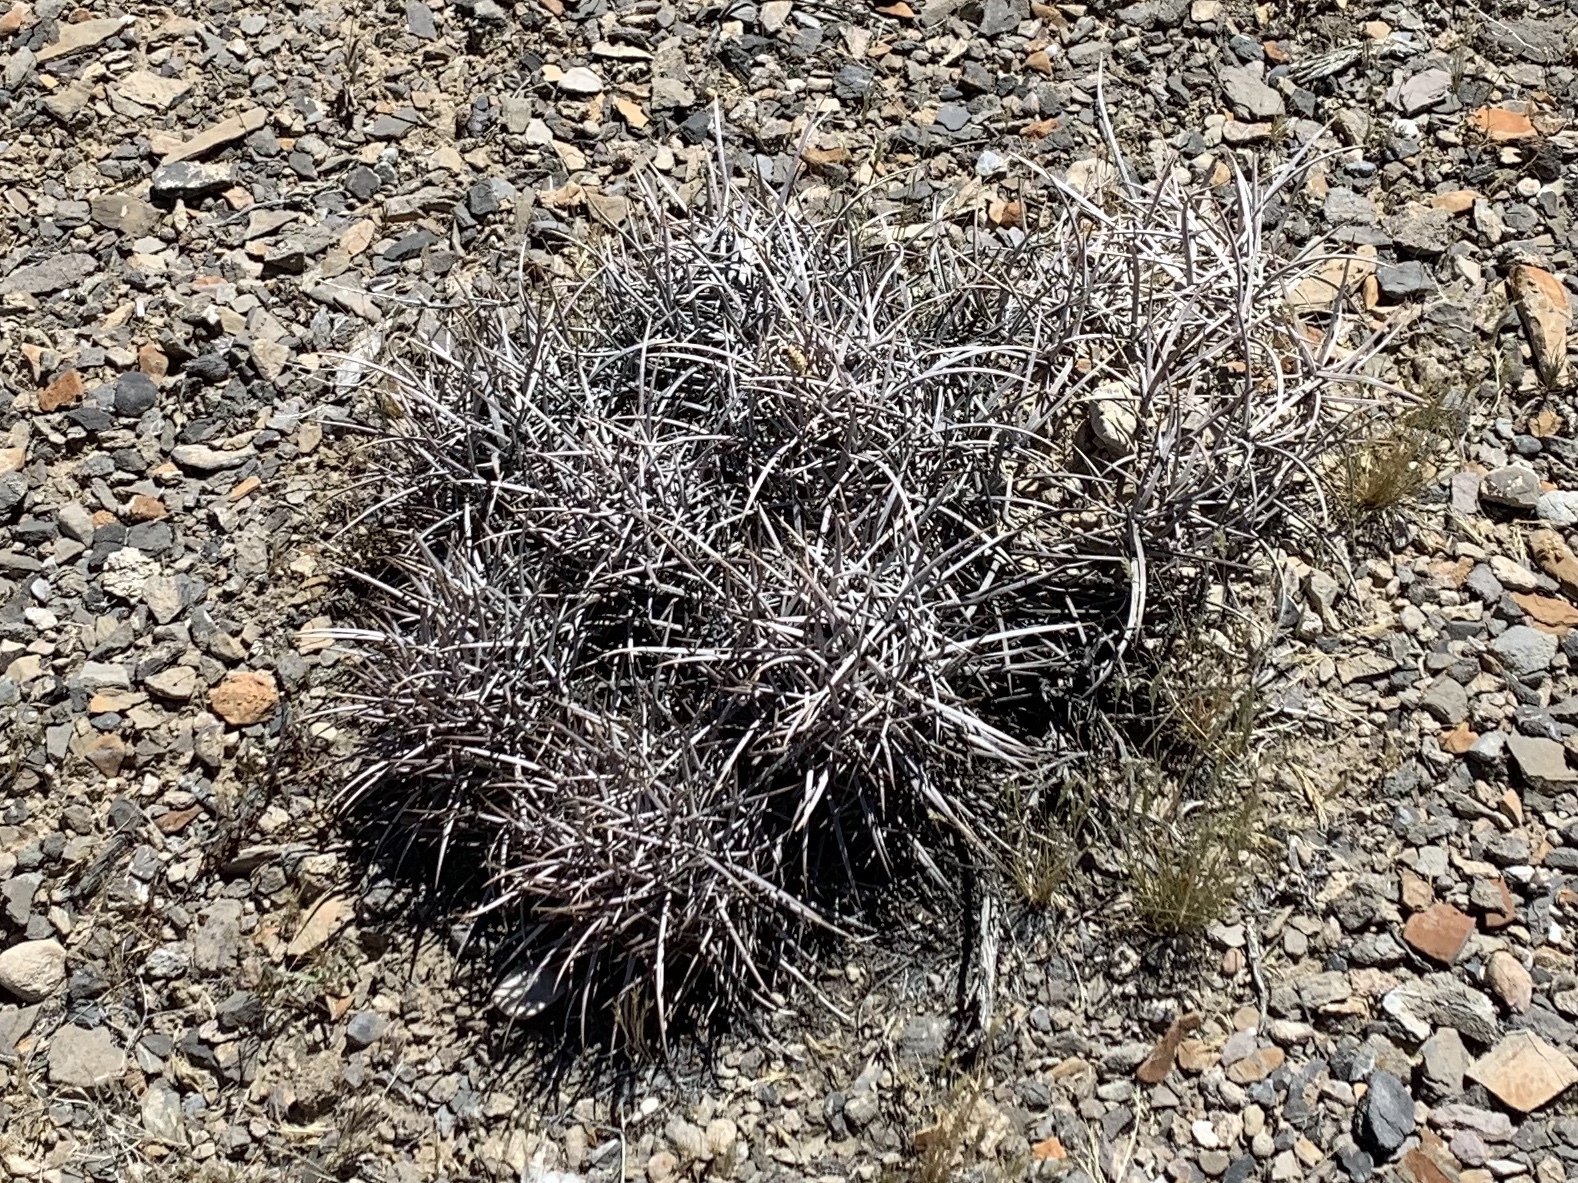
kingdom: Plantae
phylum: Tracheophyta
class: Magnoliopsida
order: Caryophyllales
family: Cactaceae
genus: Echinocactus
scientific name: Echinocactus polycephalus
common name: Cottontop cactus
